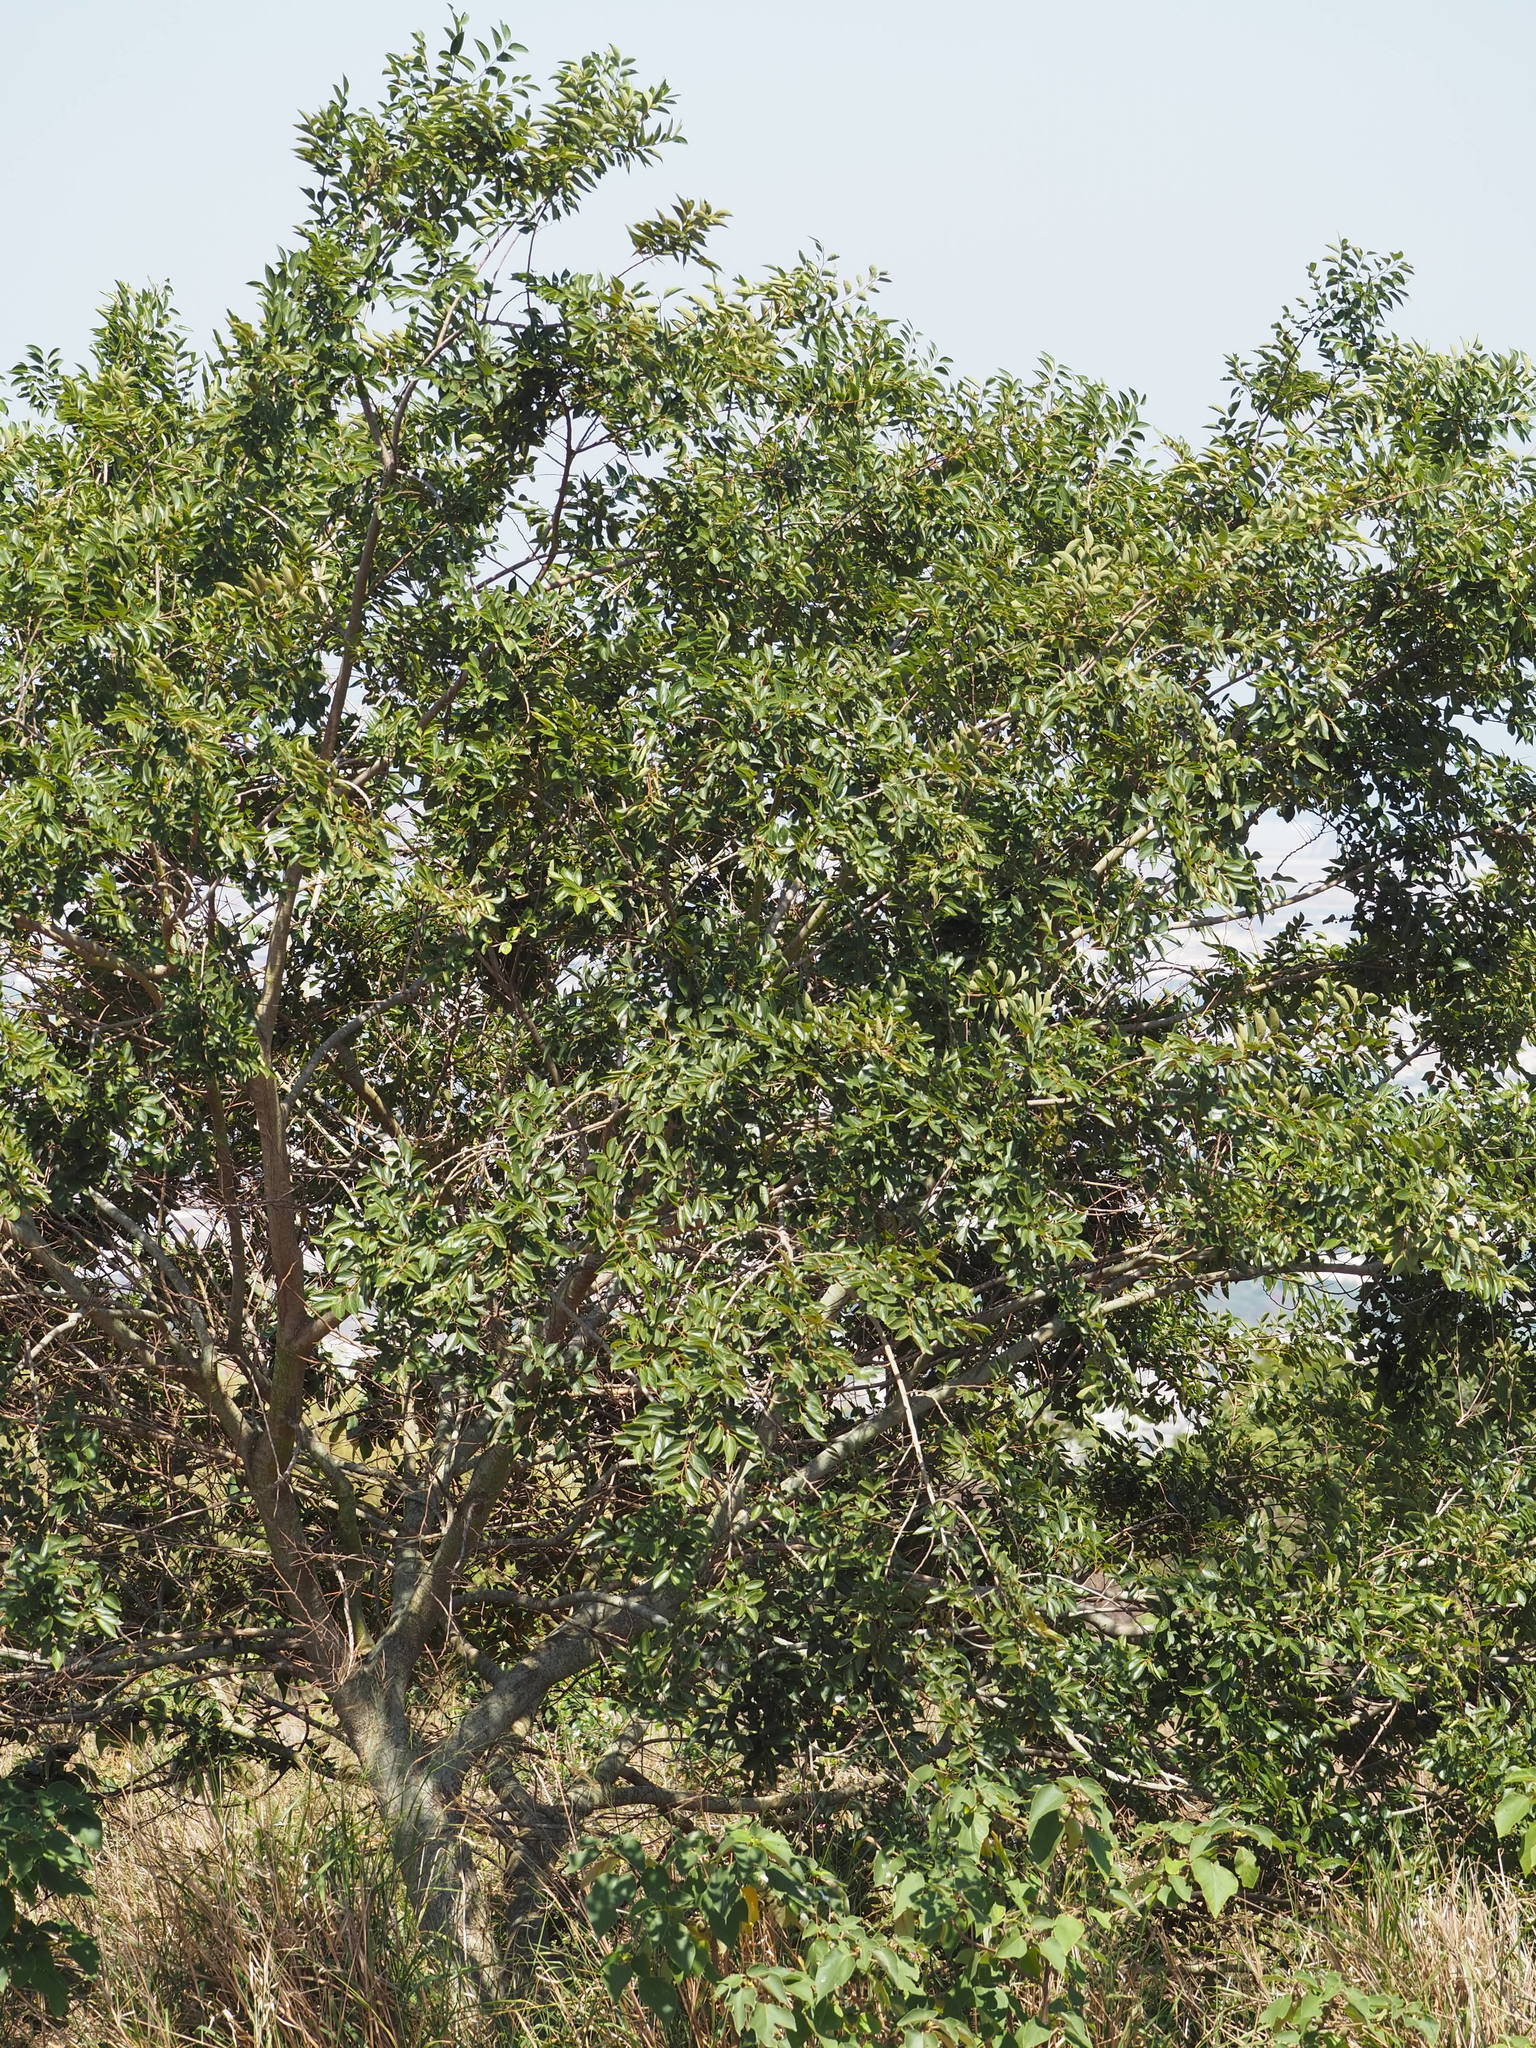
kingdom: Plantae
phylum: Tracheophyta
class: Magnoliopsida
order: Rosales
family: Cannabaceae
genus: Celtis
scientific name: Celtis sinensis
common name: Chinese hackberry
